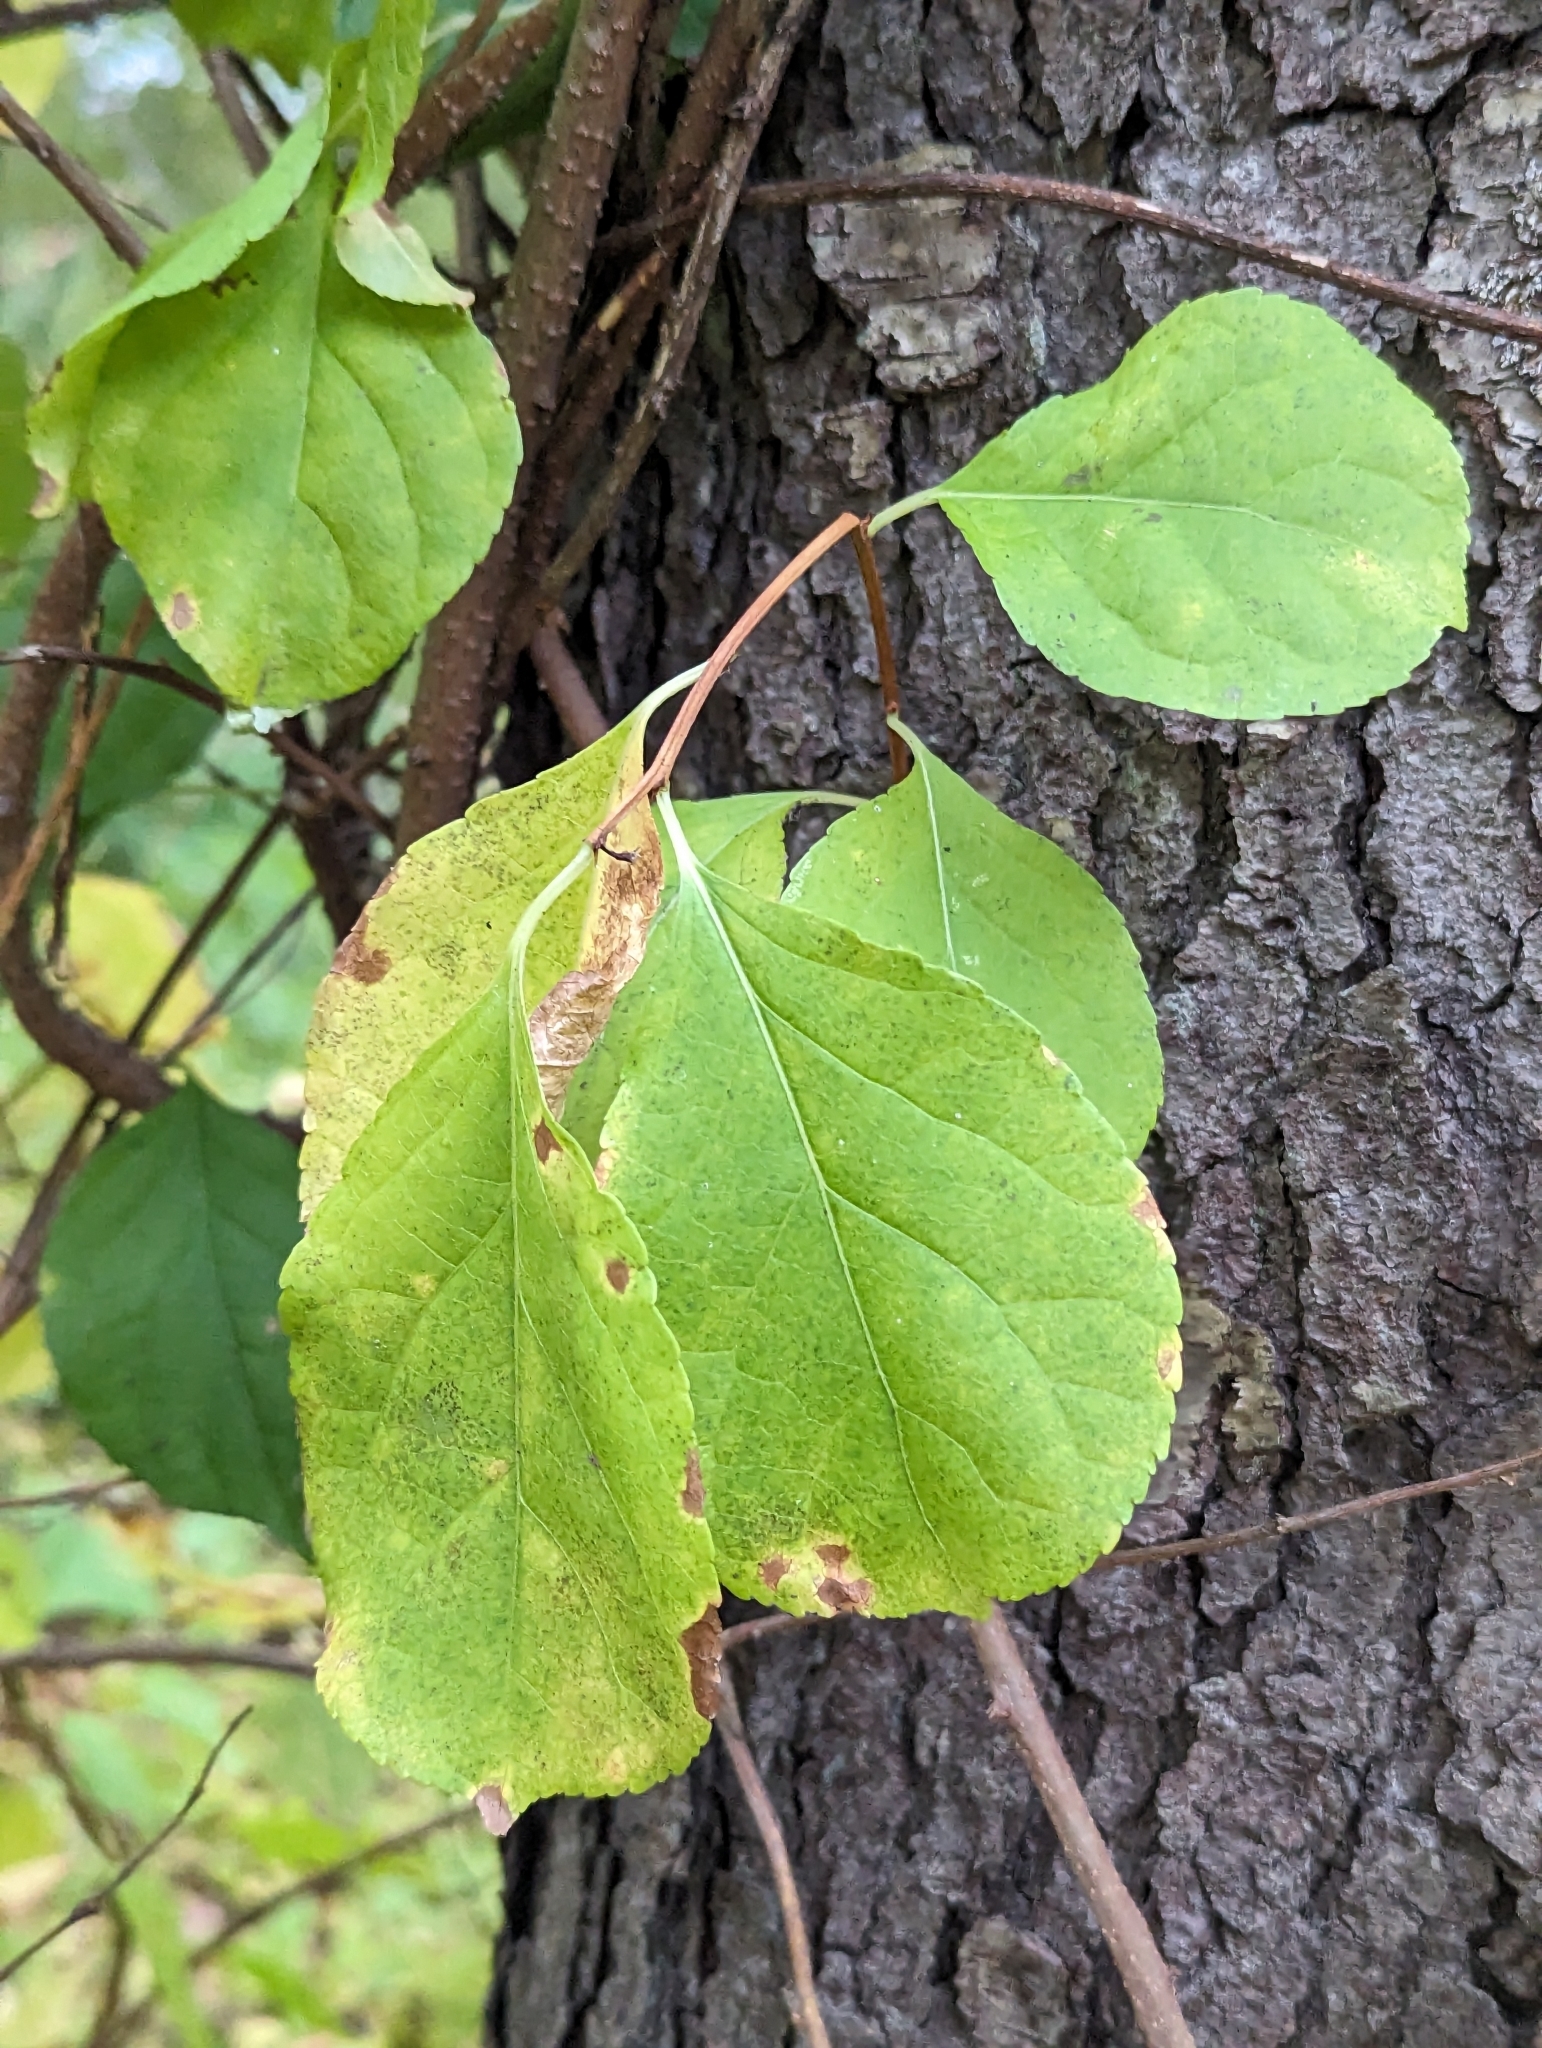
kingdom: Plantae
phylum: Tracheophyta
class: Magnoliopsida
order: Celastrales
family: Celastraceae
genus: Celastrus
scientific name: Celastrus orbiculatus
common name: Oriental bittersweet
